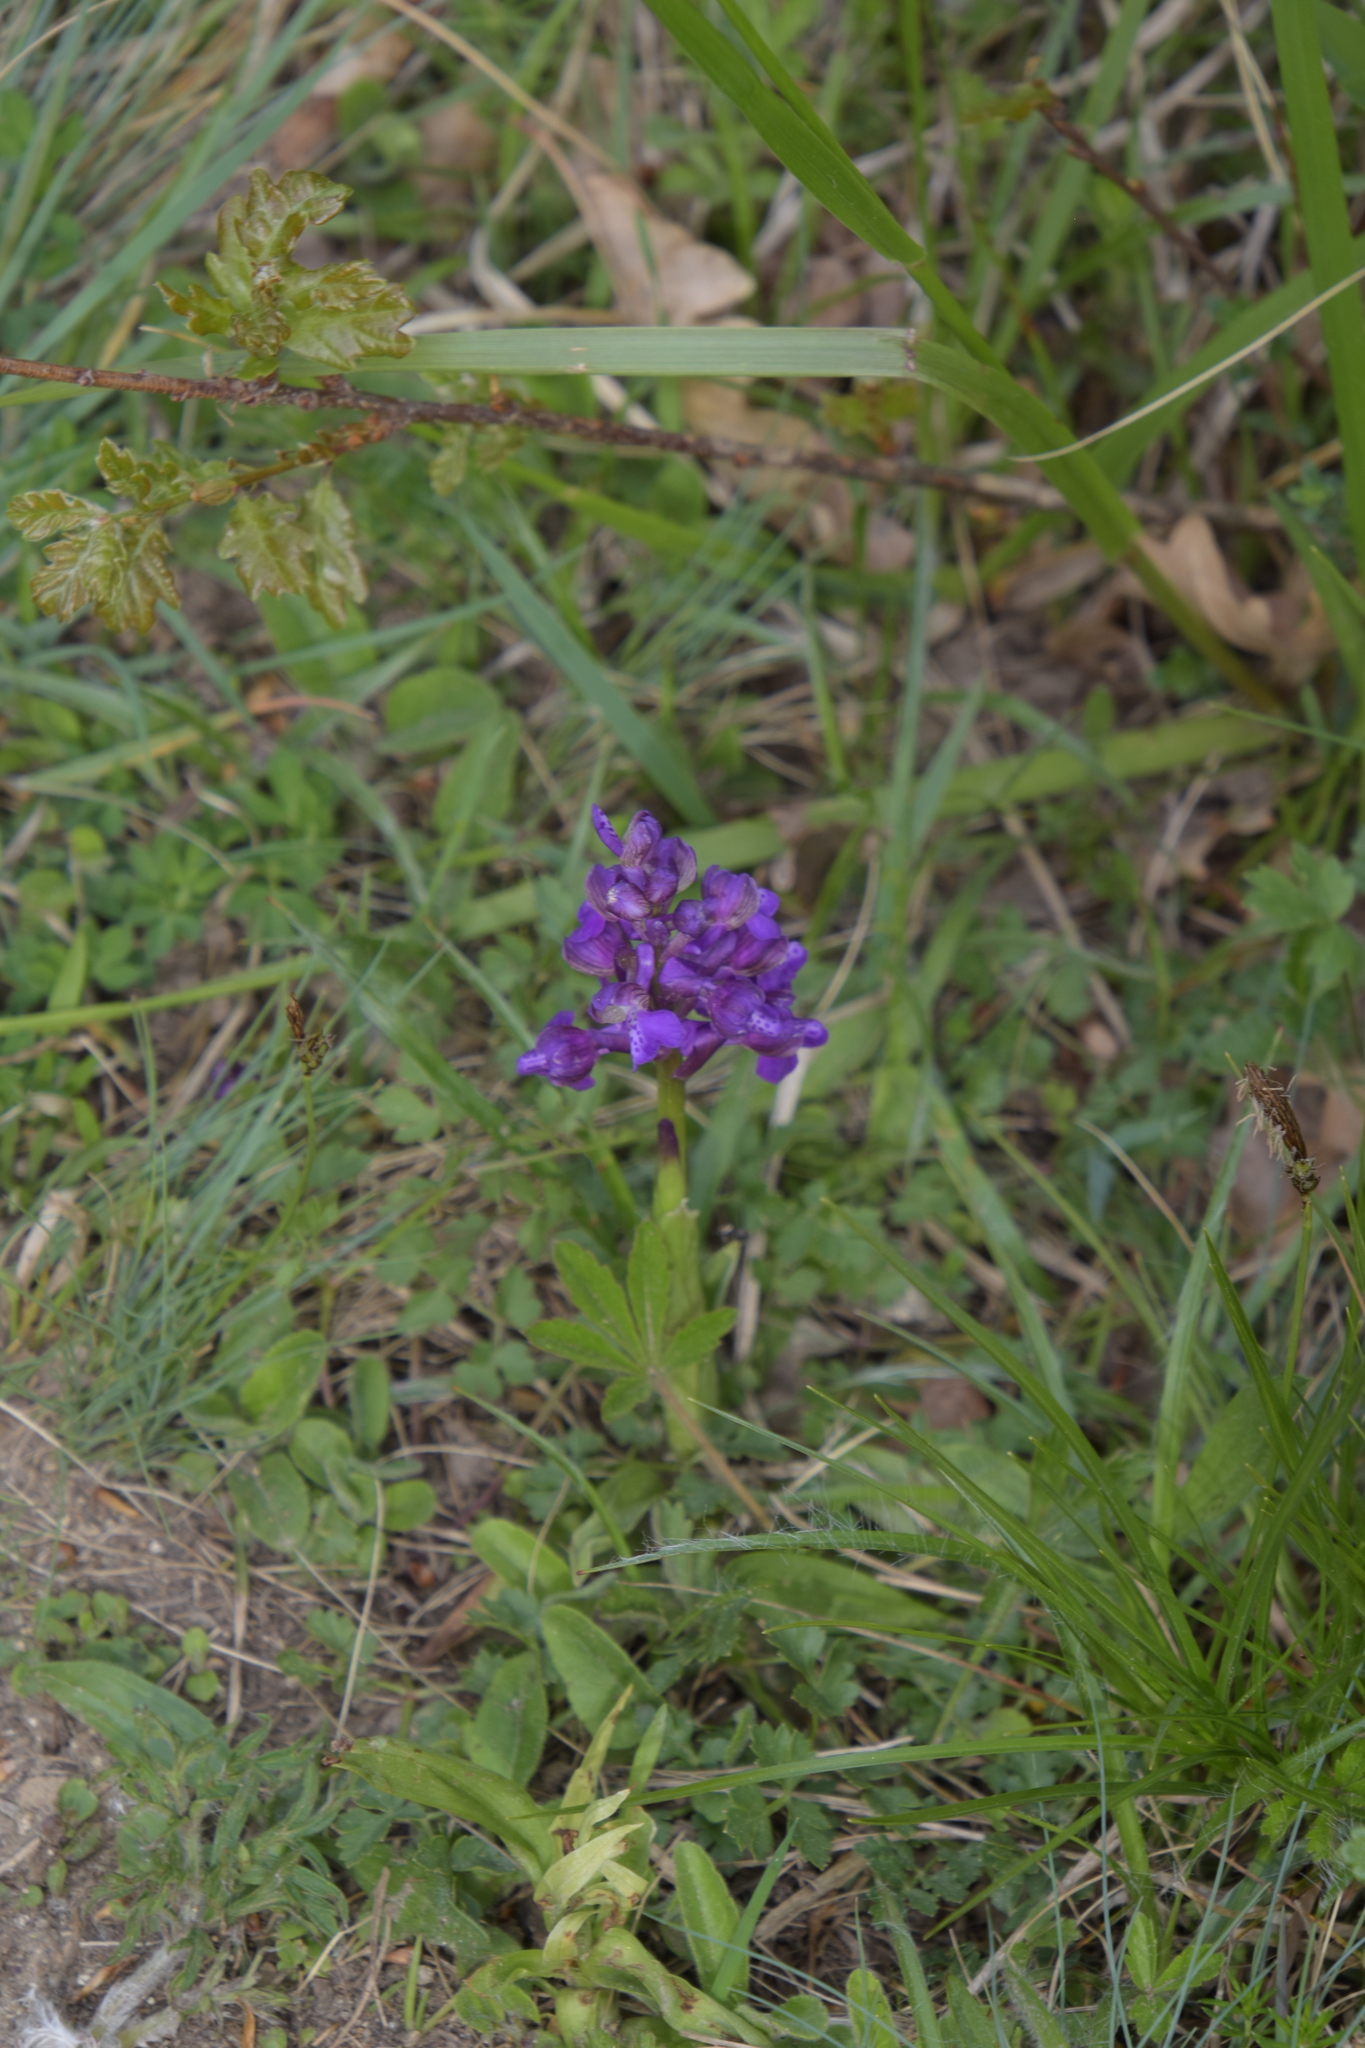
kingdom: Plantae
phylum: Tracheophyta
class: Liliopsida
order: Asparagales
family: Orchidaceae
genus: Anacamptis
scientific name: Anacamptis morio
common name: Green-winged orchid
